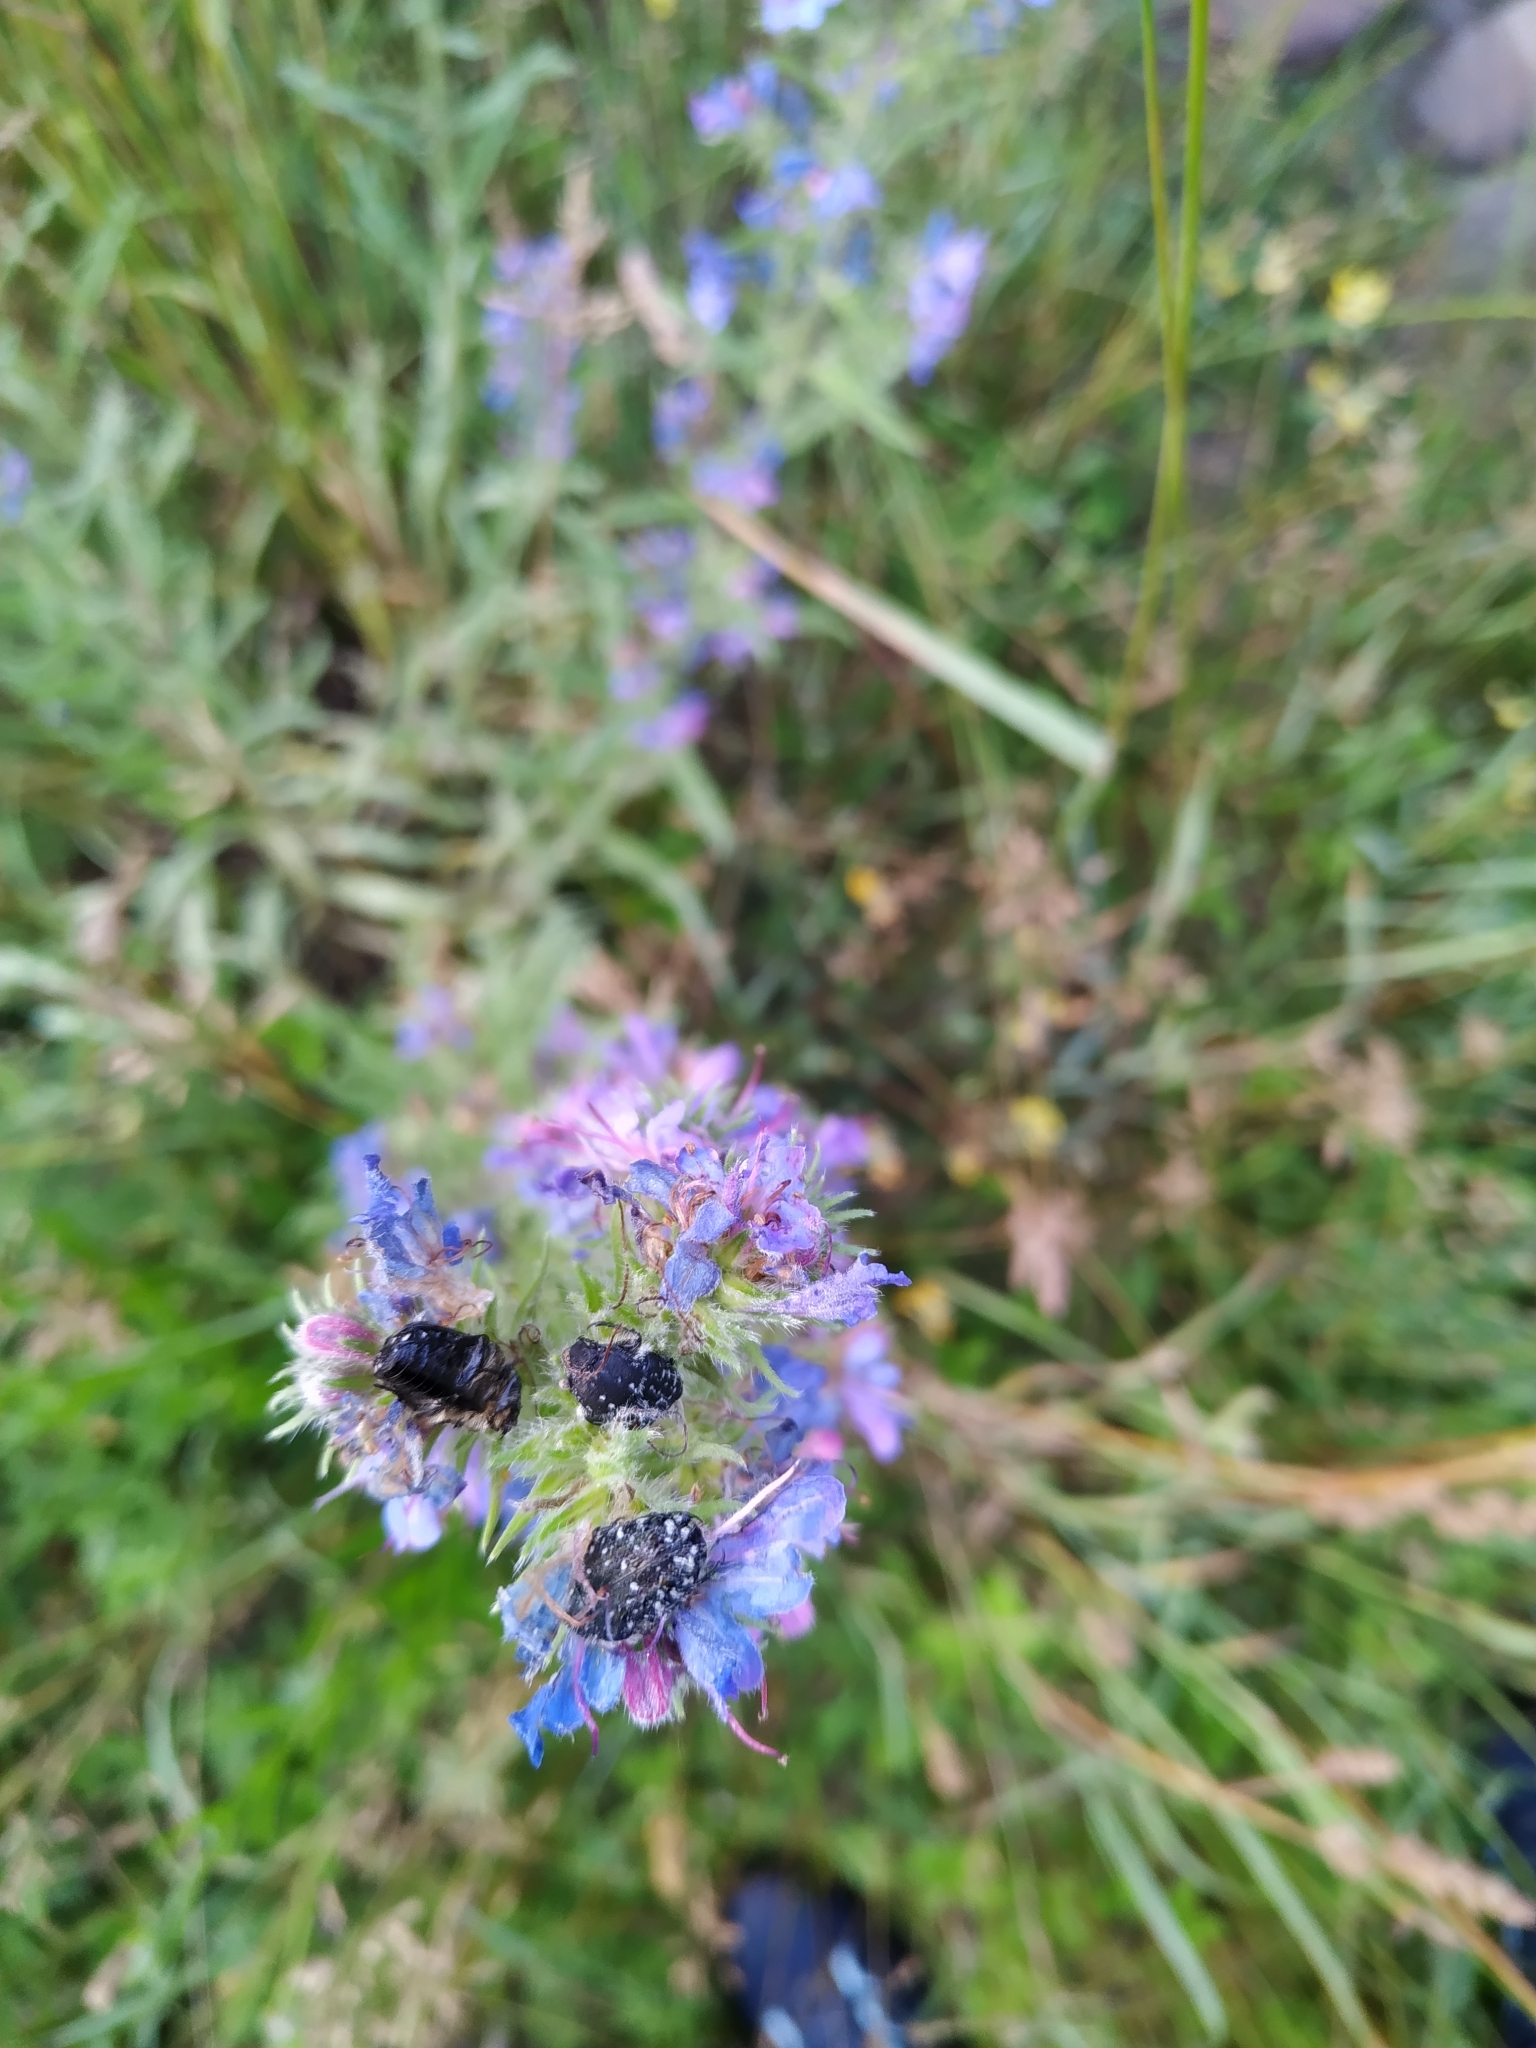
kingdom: Animalia
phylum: Arthropoda
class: Insecta
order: Coleoptera
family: Scarabaeidae
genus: Oxythyrea
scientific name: Oxythyrea funesta
